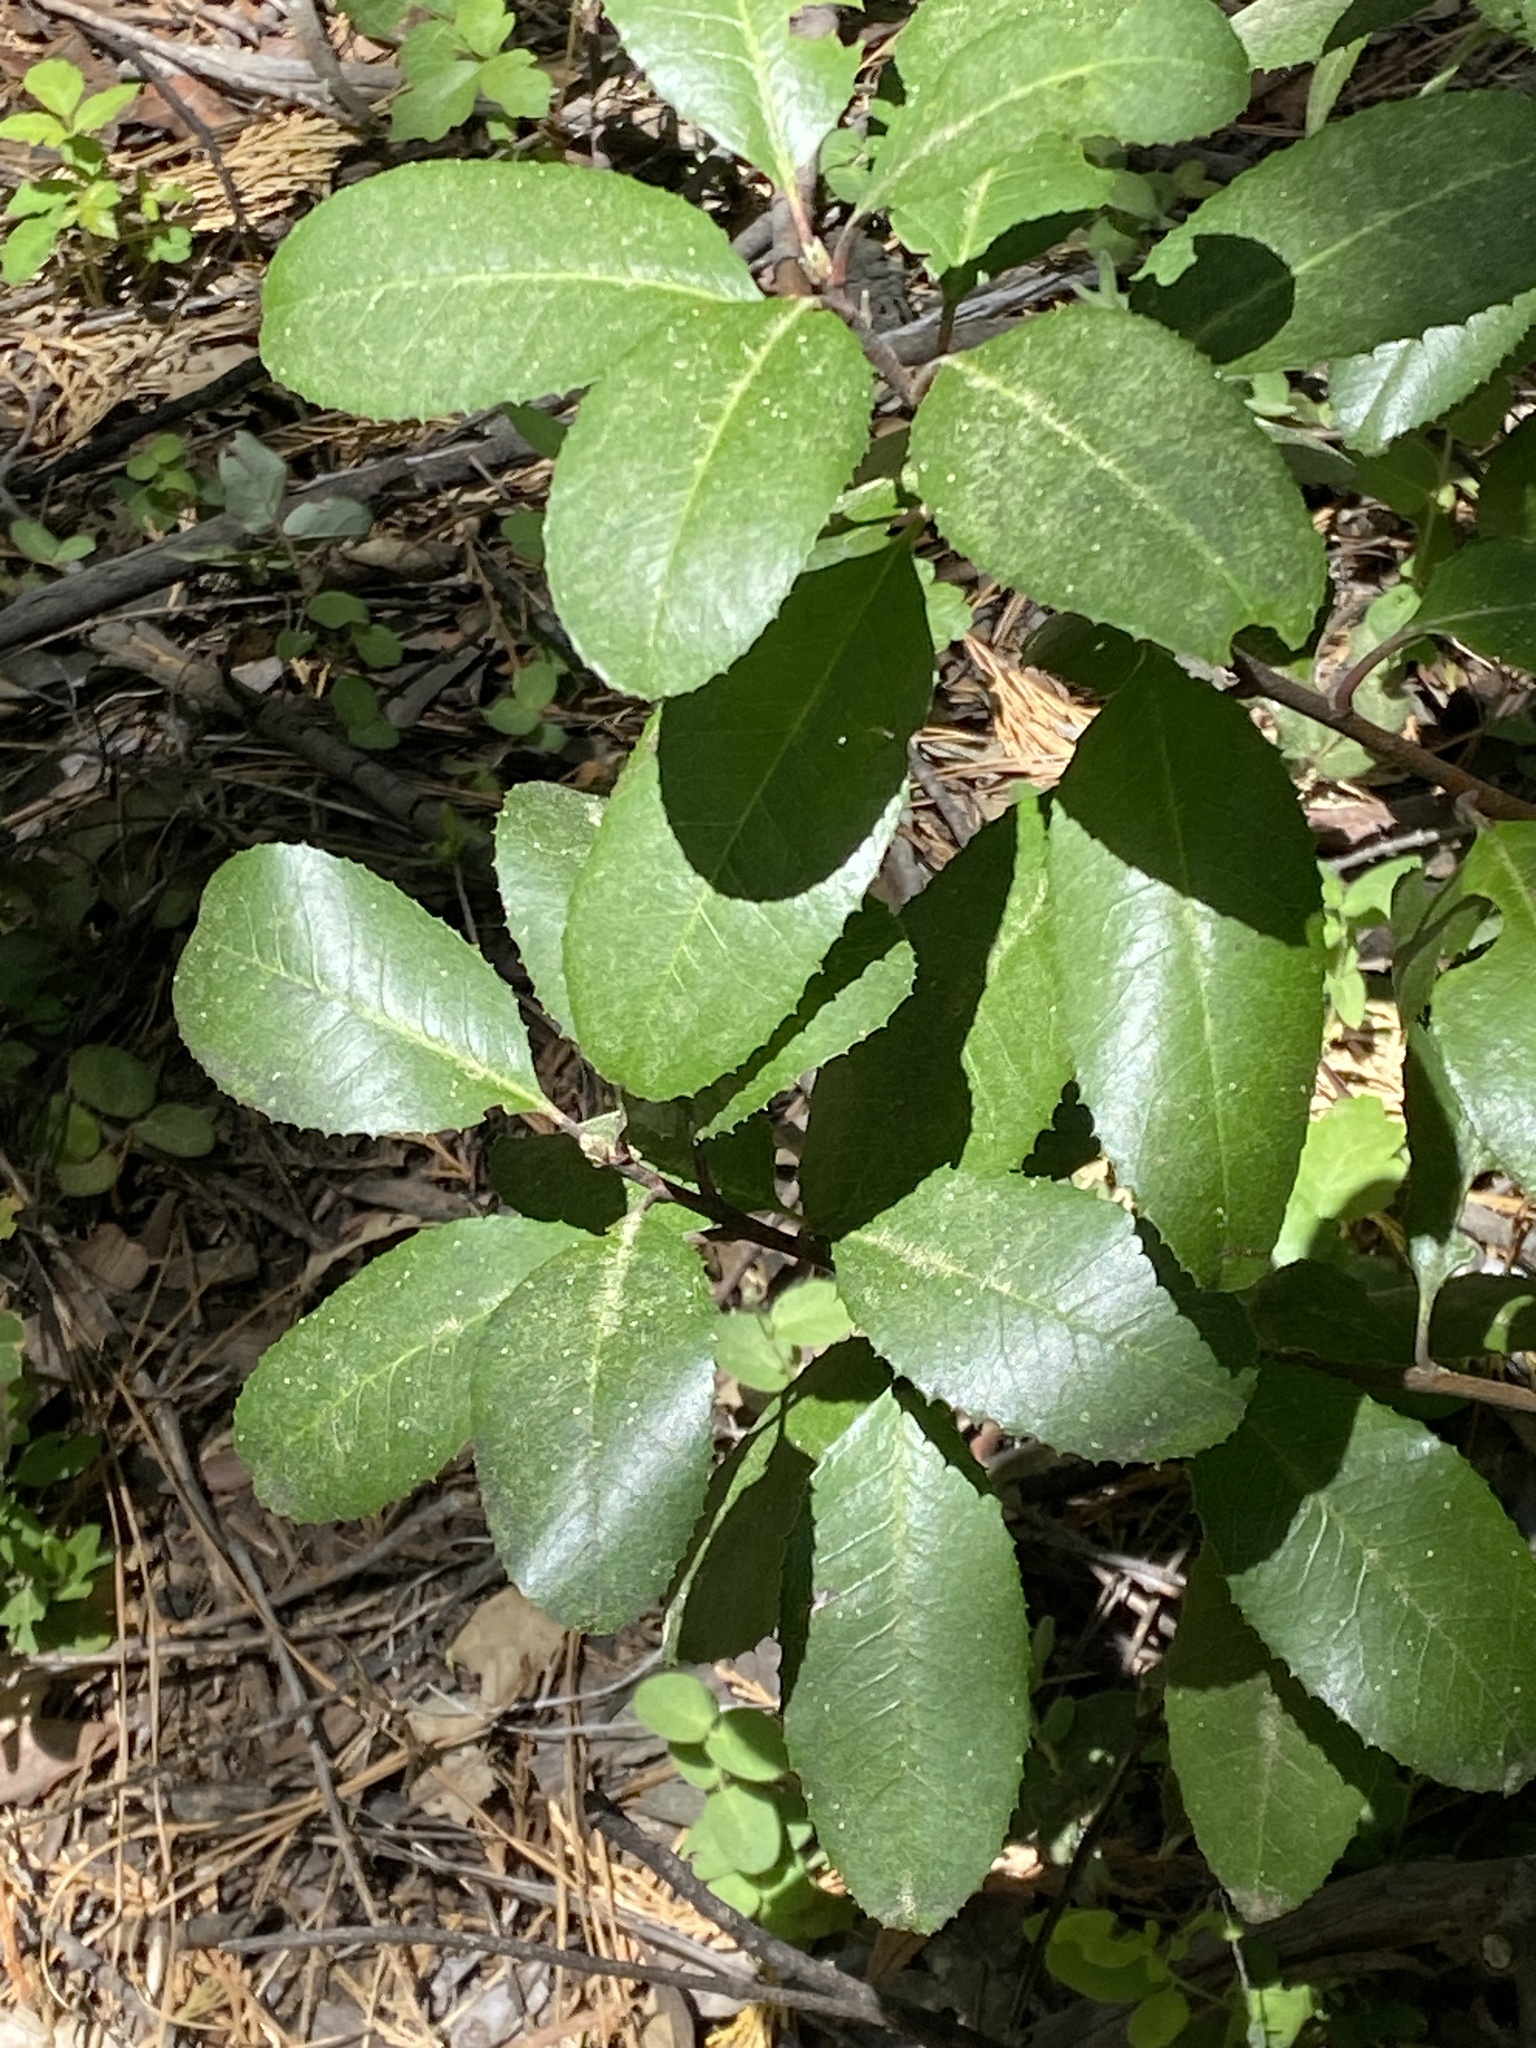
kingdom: Plantae
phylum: Tracheophyta
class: Magnoliopsida
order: Rosales
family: Rosaceae
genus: Heteromeles
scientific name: Heteromeles arbutifolia
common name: California-holly
